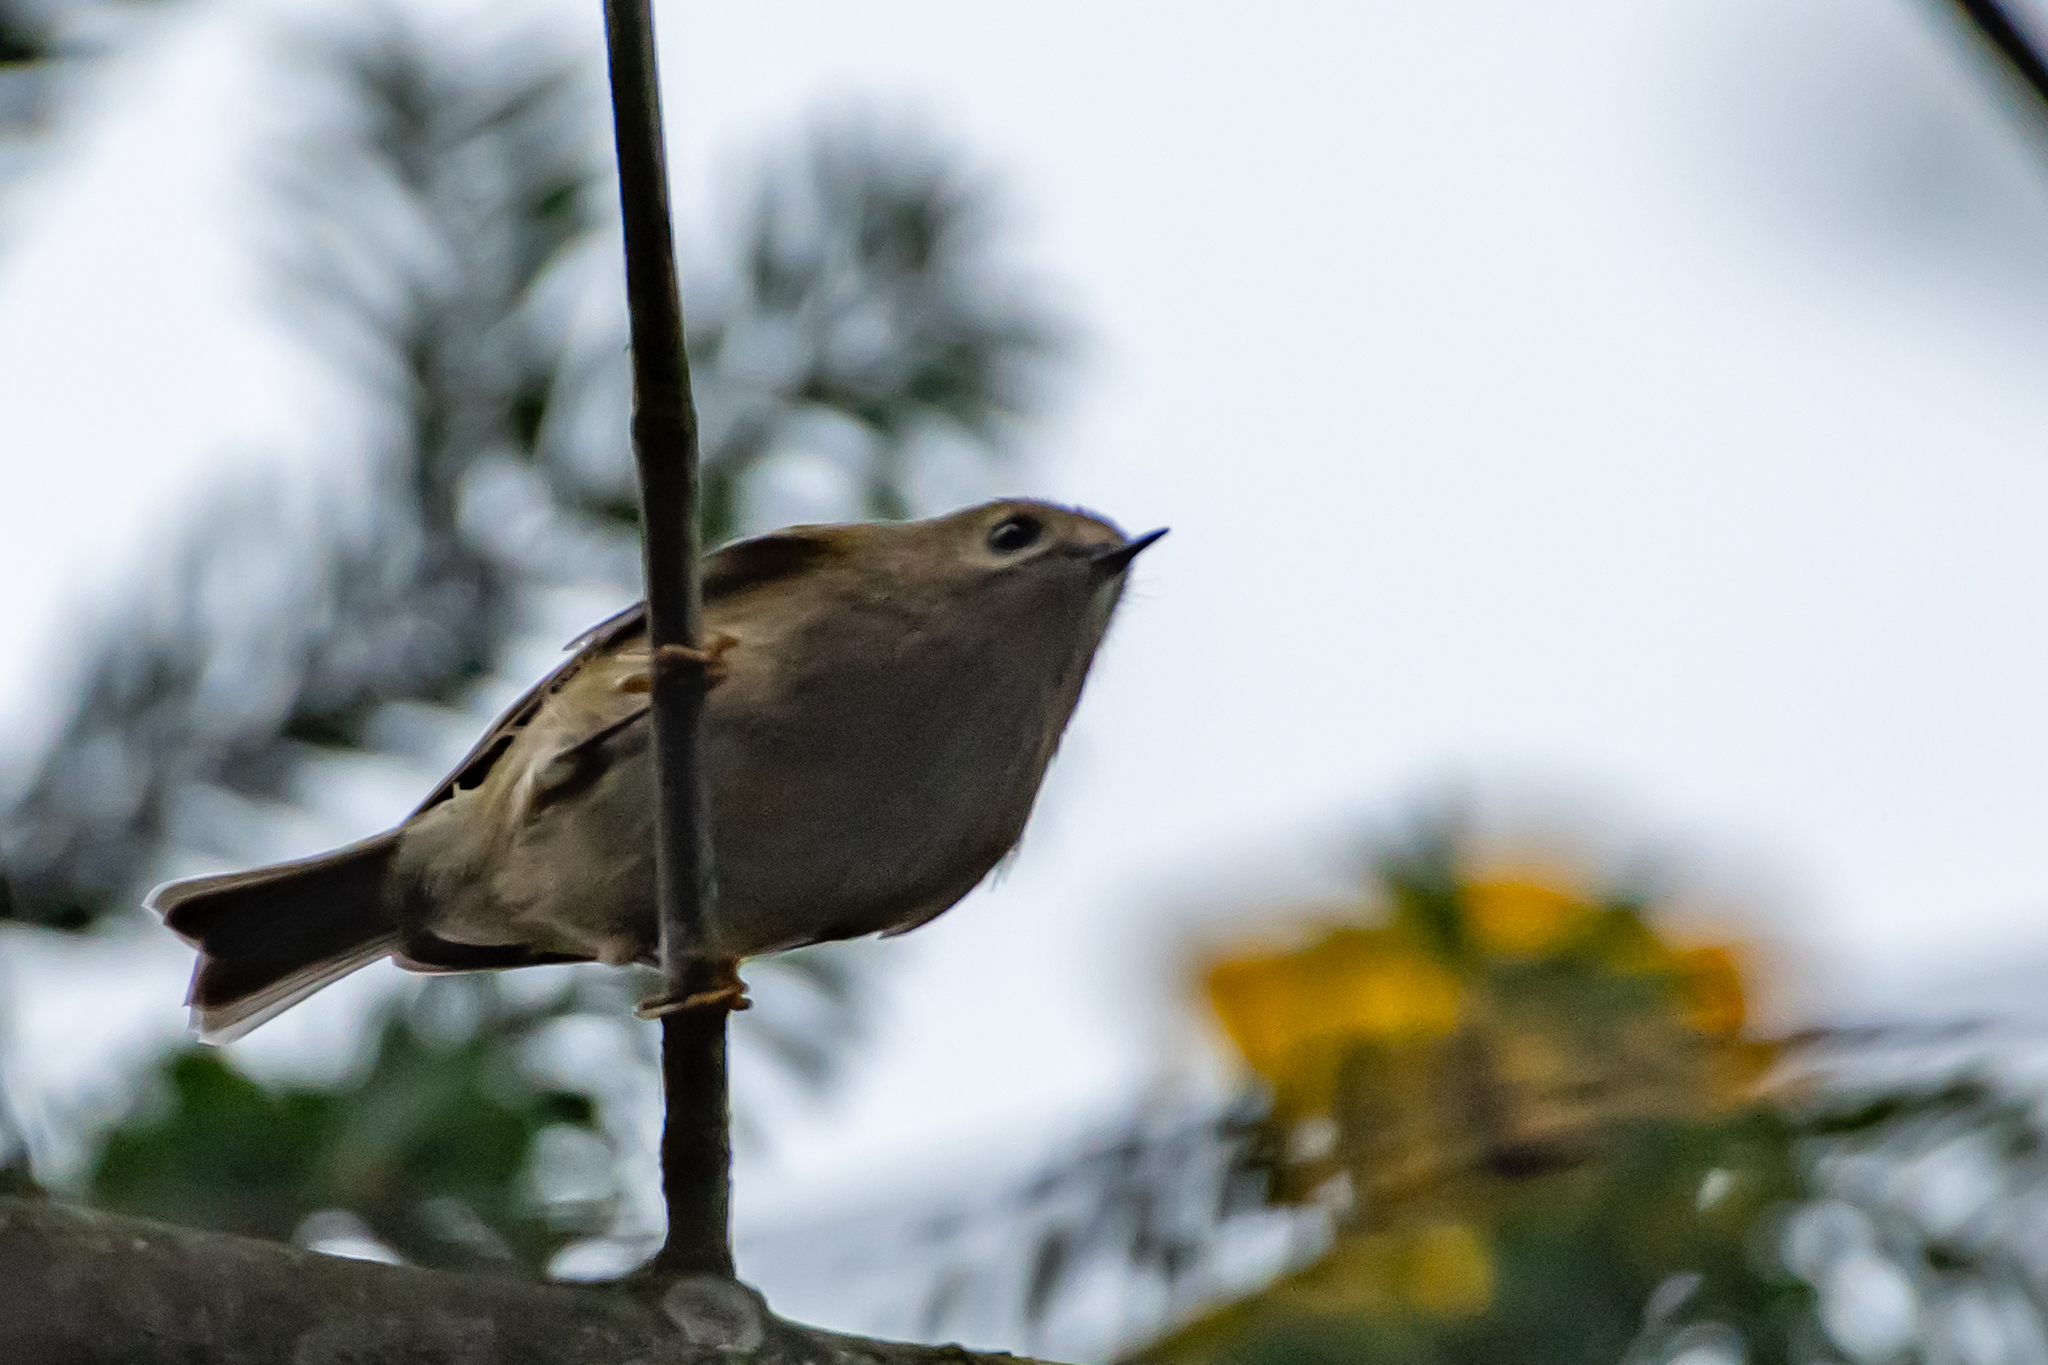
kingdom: Animalia
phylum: Chordata
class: Aves
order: Passeriformes
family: Regulidae
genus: Regulus
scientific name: Regulus regulus
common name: Goldcrest
